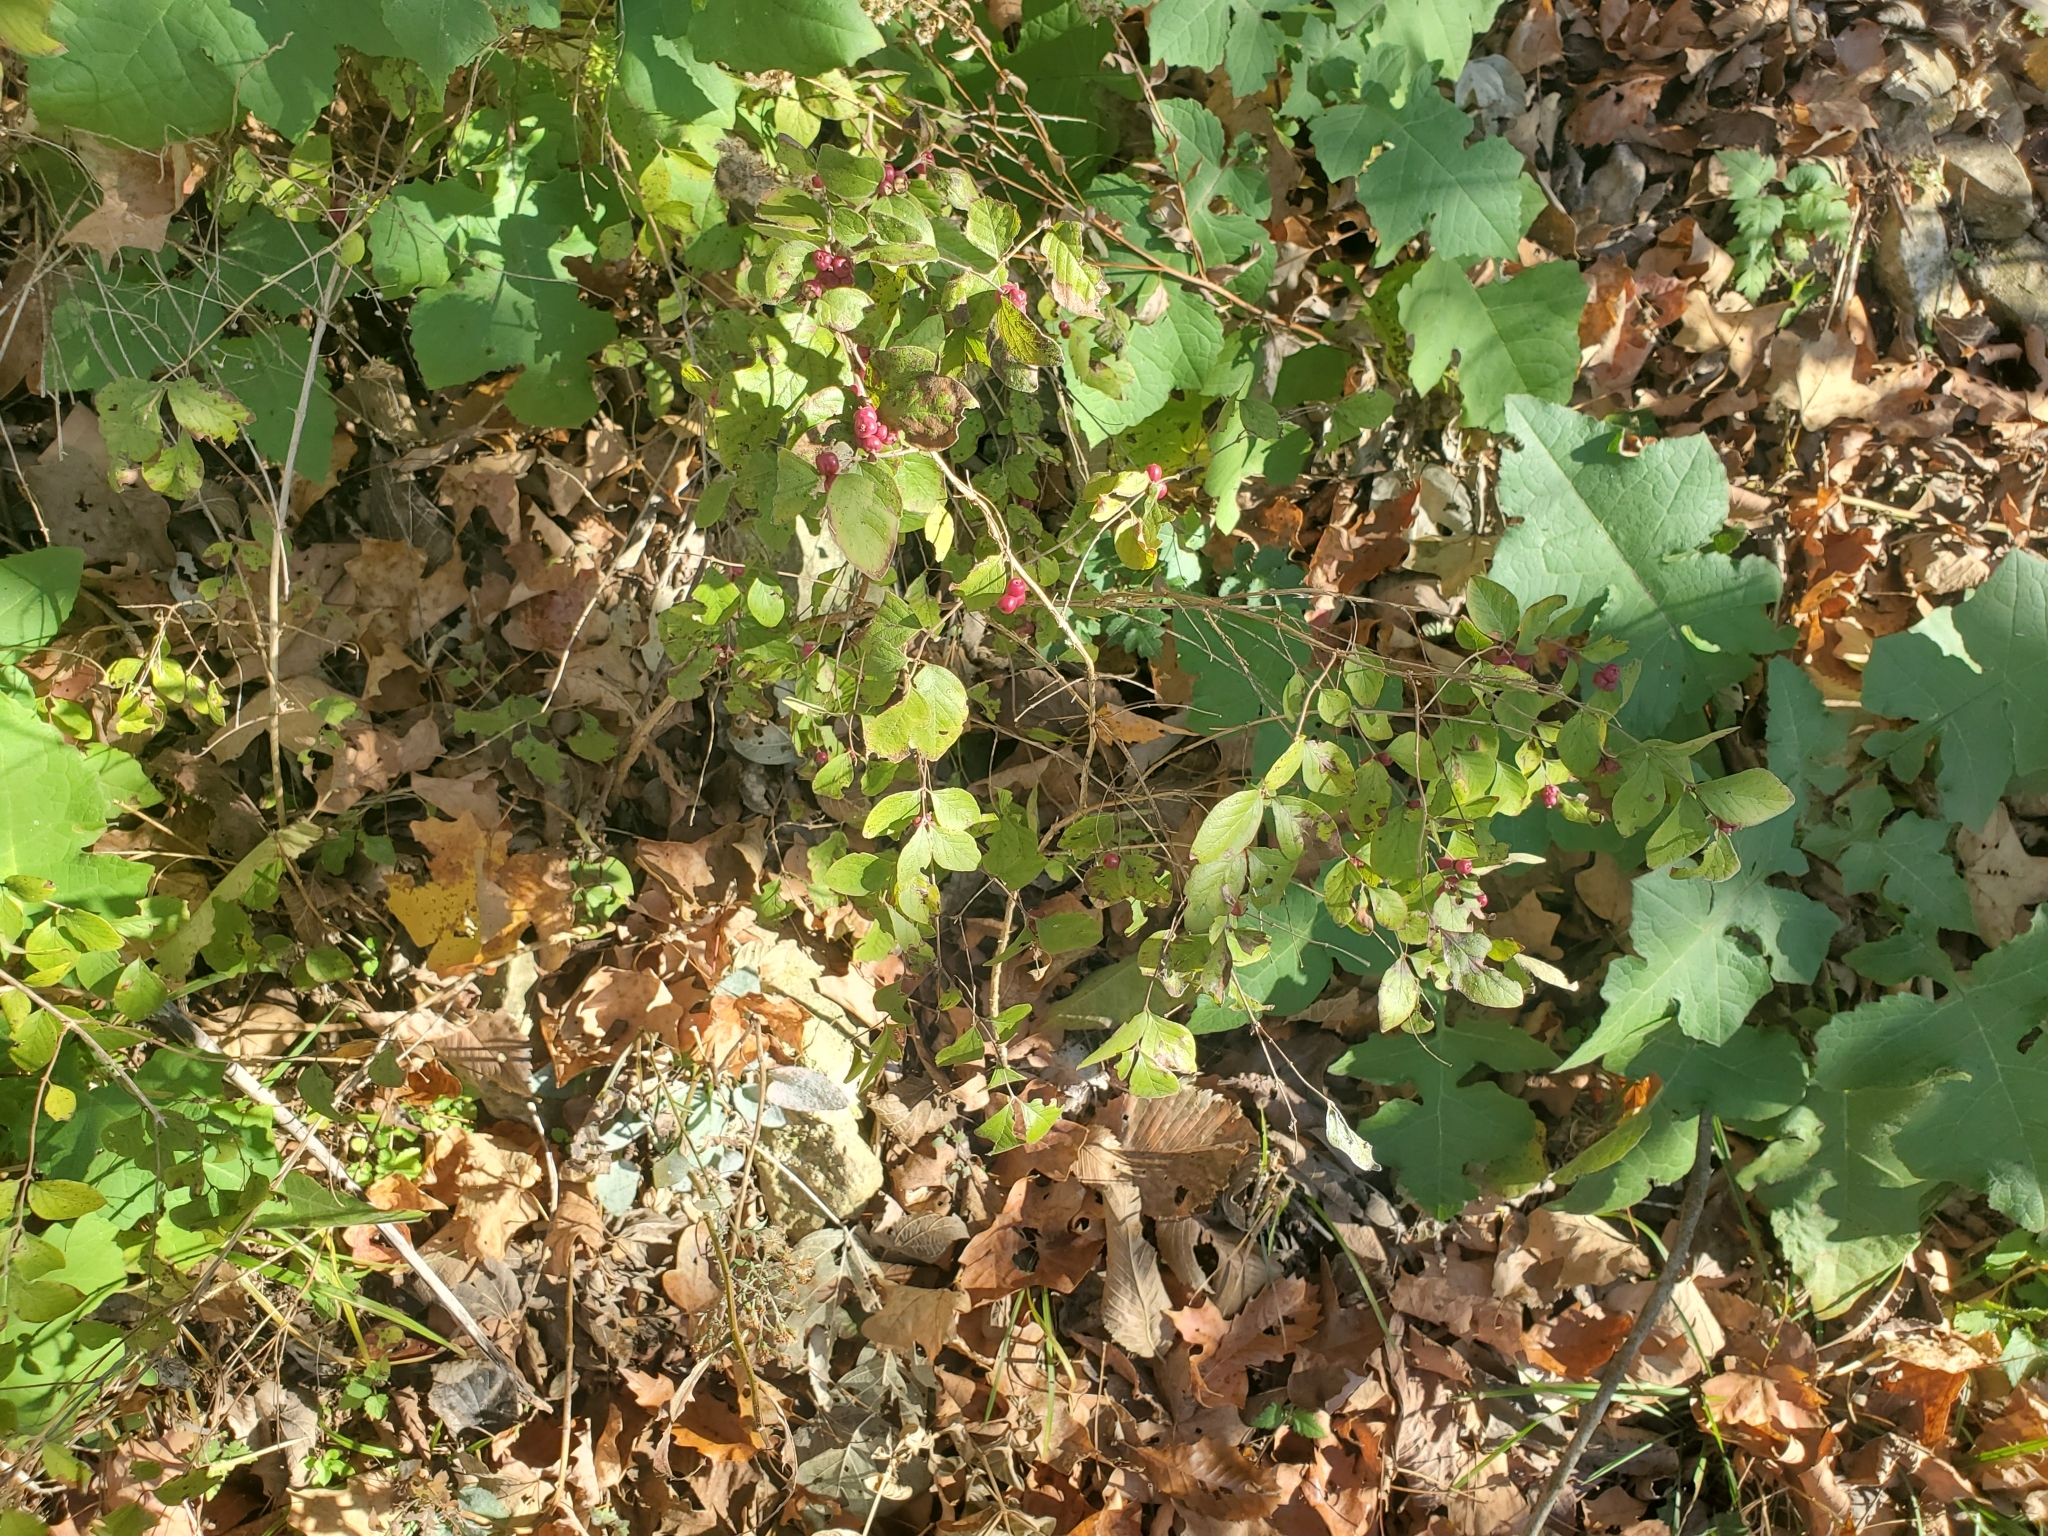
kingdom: Plantae
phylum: Tracheophyta
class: Magnoliopsida
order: Dipsacales
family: Caprifoliaceae
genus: Symphoricarpos
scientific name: Symphoricarpos orbiculatus
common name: Coralberry
